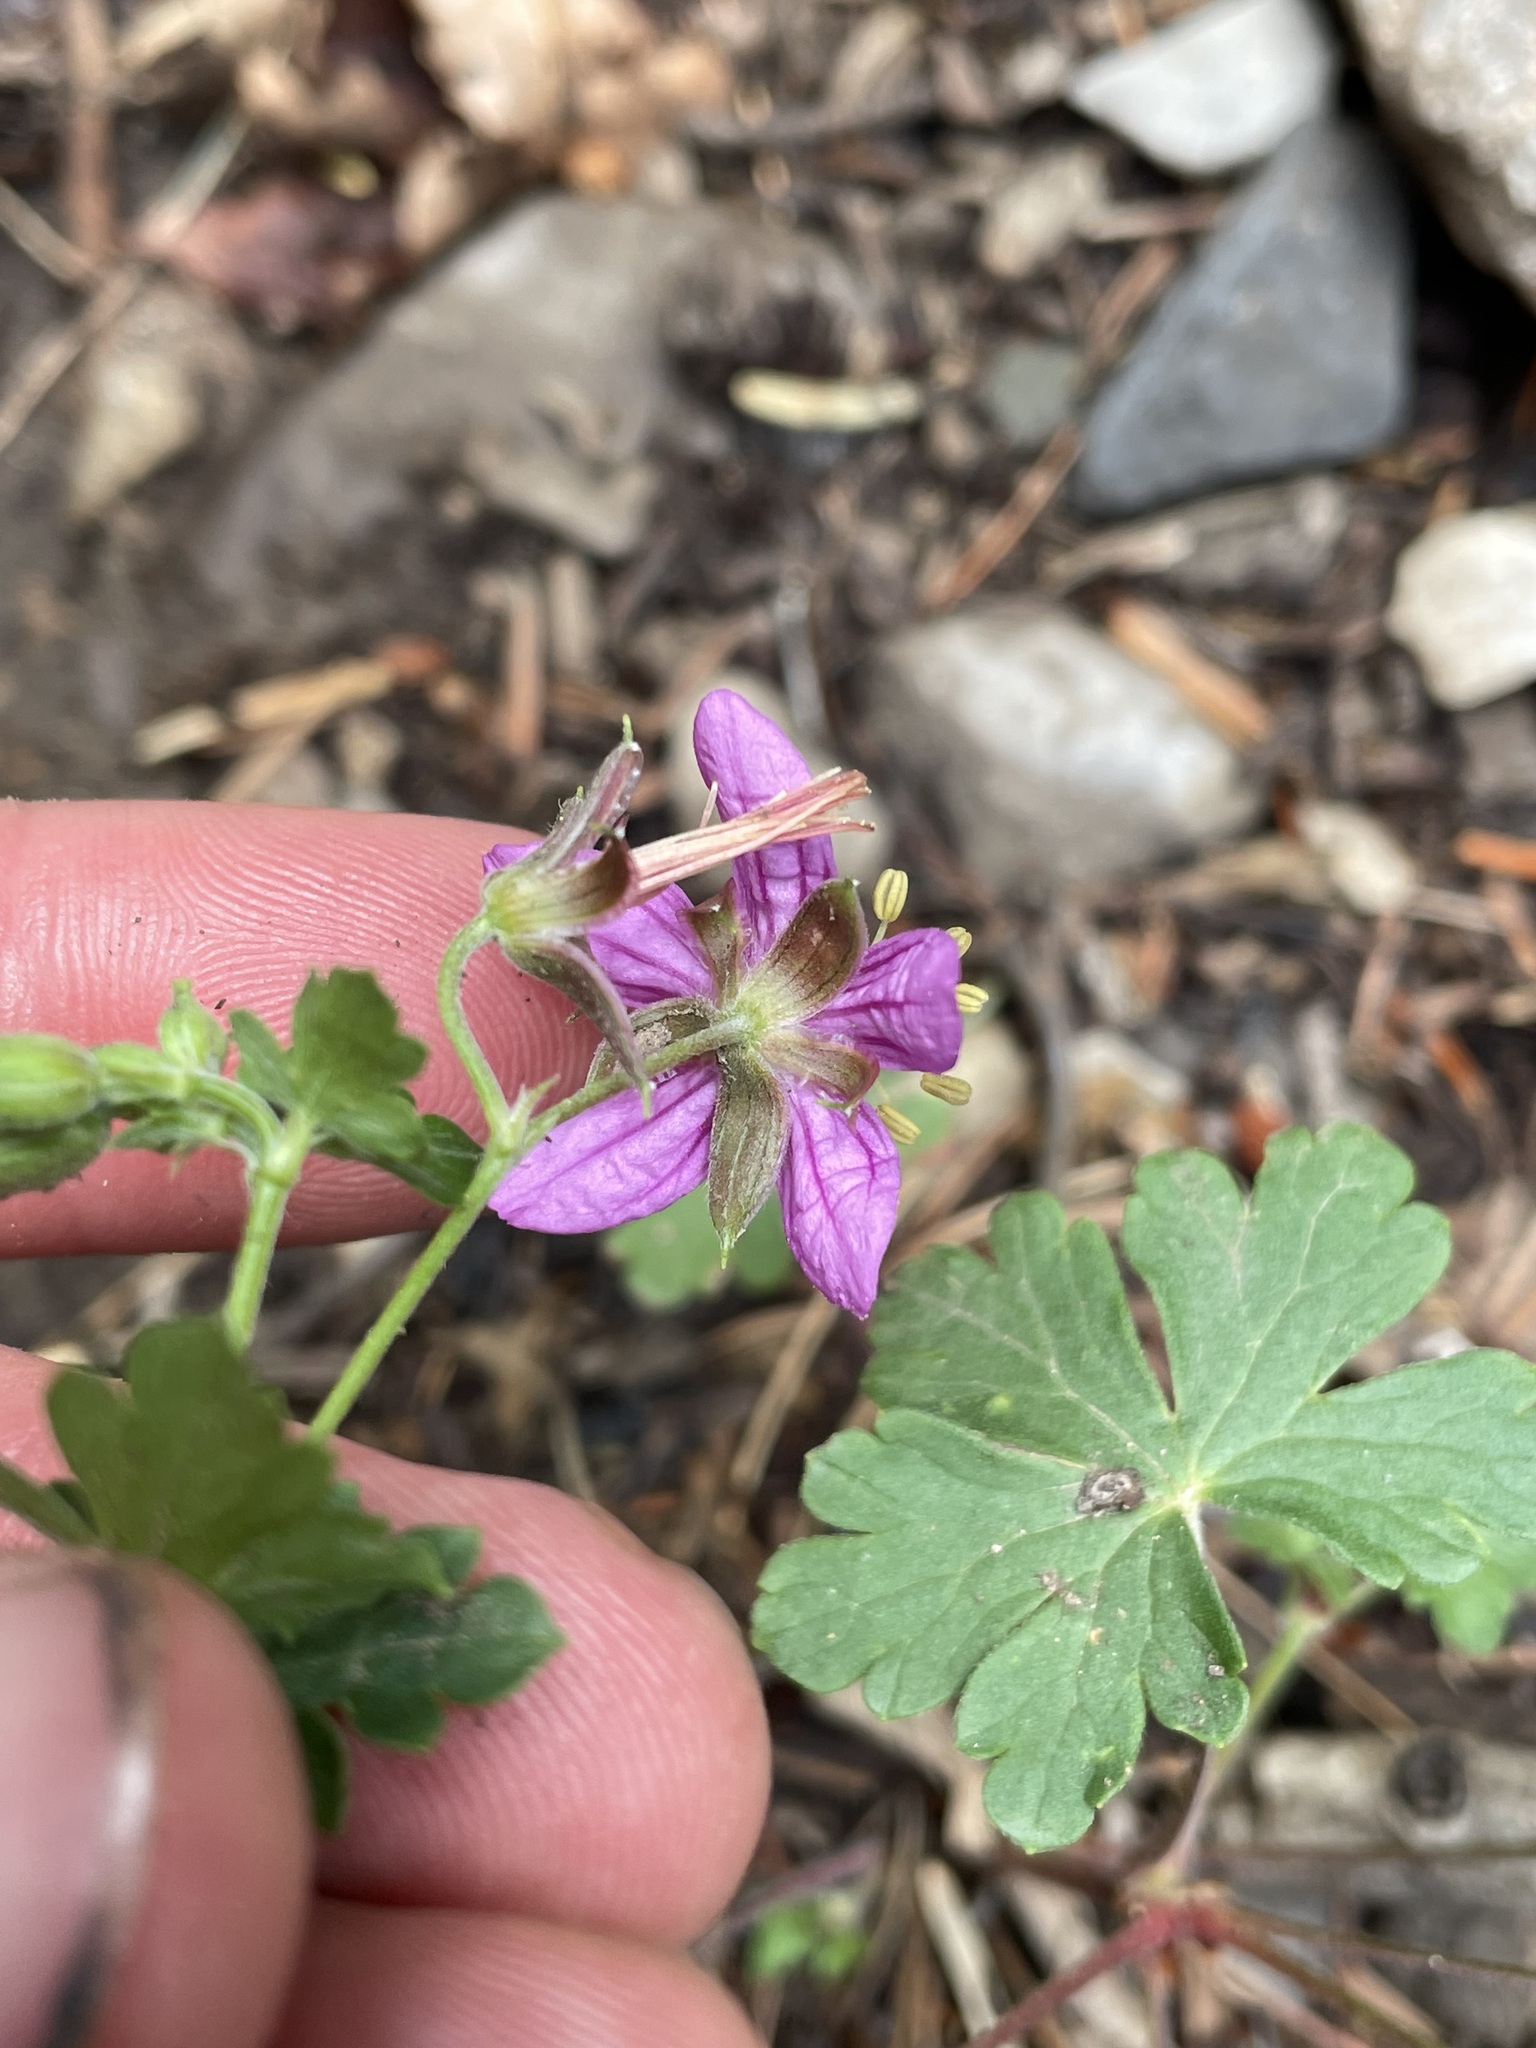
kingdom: Plantae
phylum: Tracheophyta
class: Magnoliopsida
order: Geraniales
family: Geraniaceae
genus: Geranium
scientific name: Geranium caespitosum
